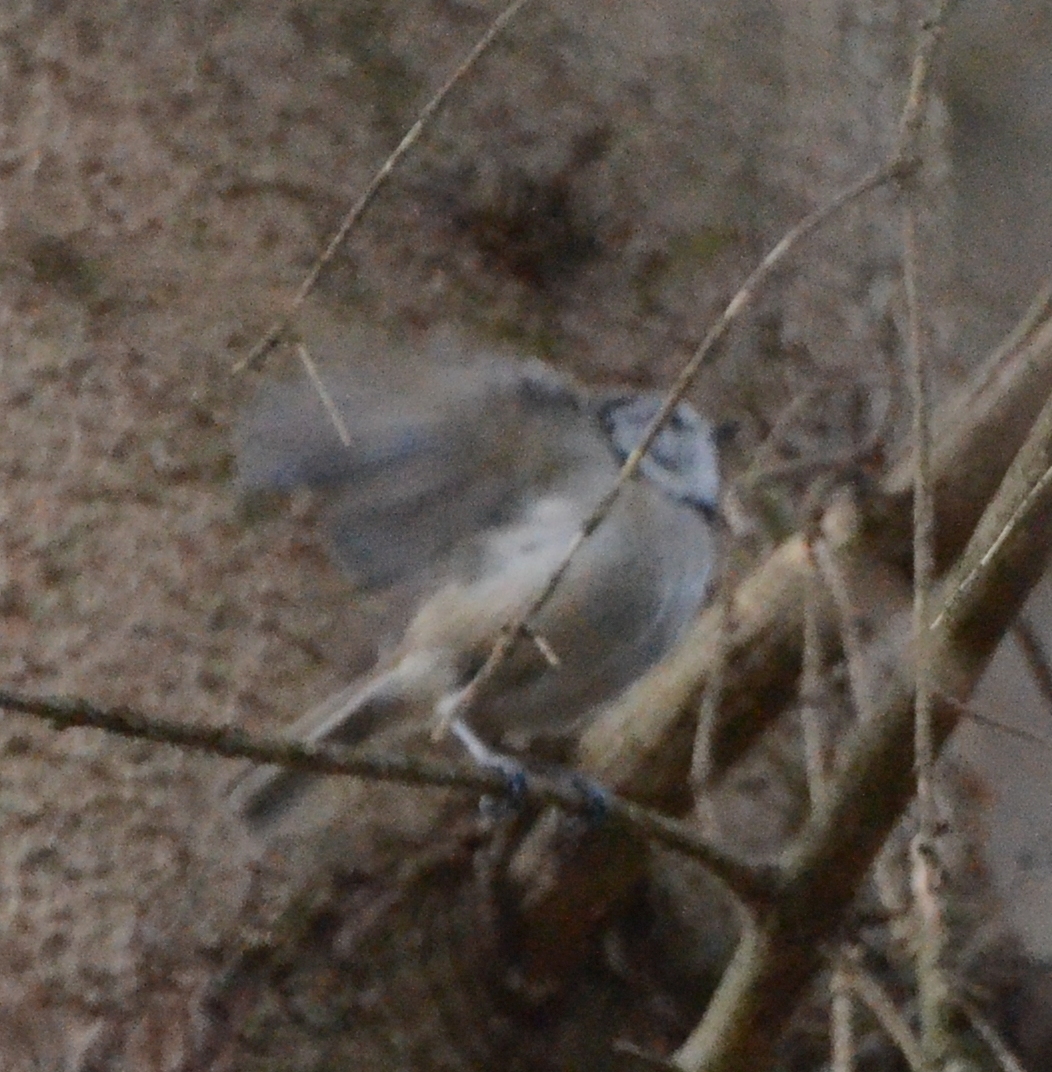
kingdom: Animalia
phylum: Chordata
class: Aves
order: Passeriformes
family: Paridae
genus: Lophophanes
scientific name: Lophophanes cristatus
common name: European crested tit
